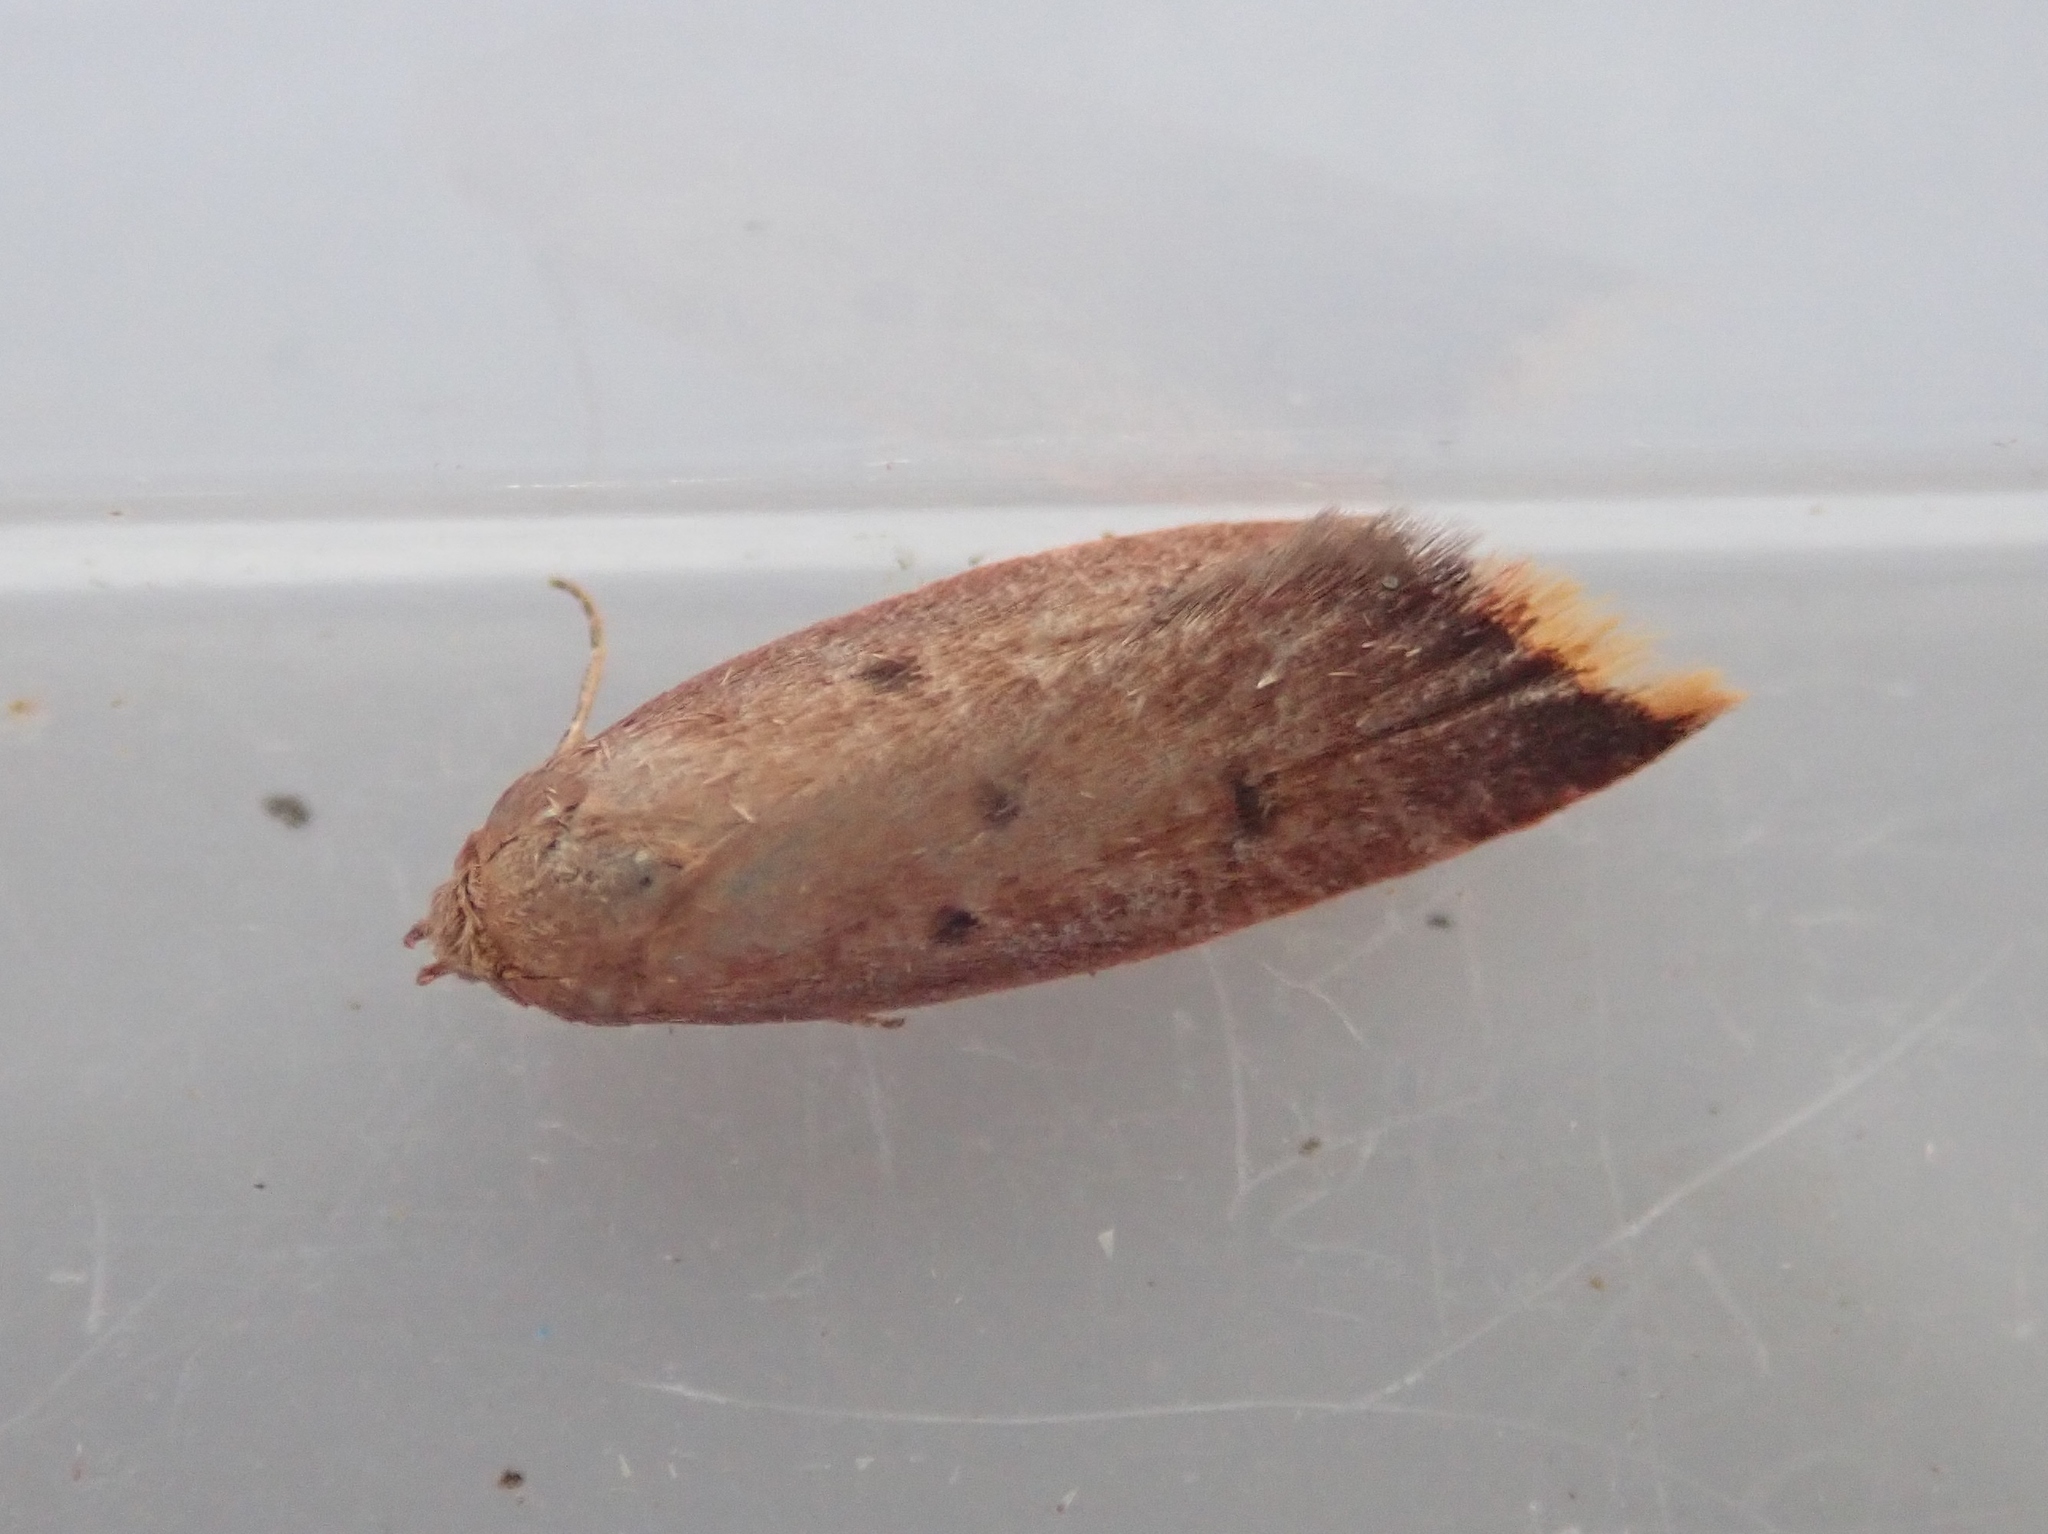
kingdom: Animalia
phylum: Arthropoda
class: Insecta
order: Lepidoptera
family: Oecophoridae
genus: Tachystola
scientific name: Tachystola acroxantha
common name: Ruddy streak
